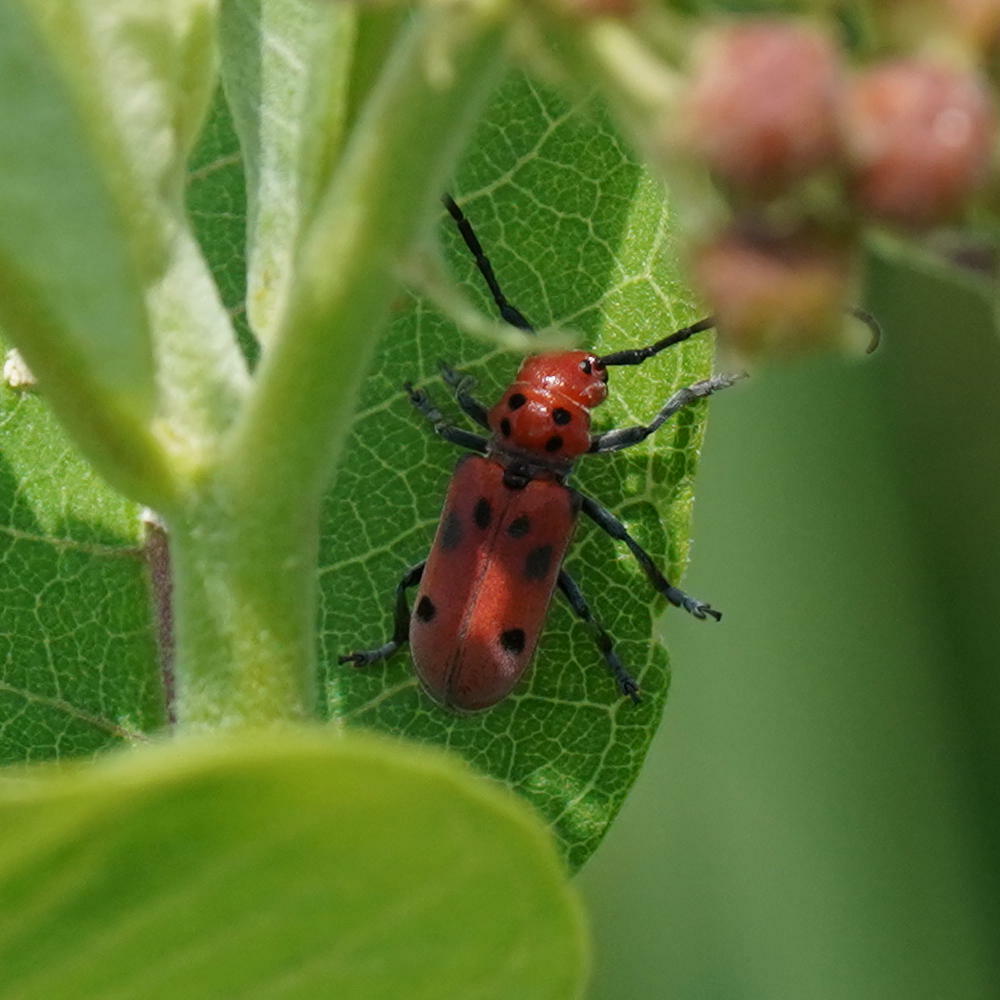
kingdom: Animalia
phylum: Arthropoda
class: Insecta
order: Coleoptera
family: Cerambycidae
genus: Tetraopes
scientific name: Tetraopes tetrophthalmus
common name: Red milkweed beetle
